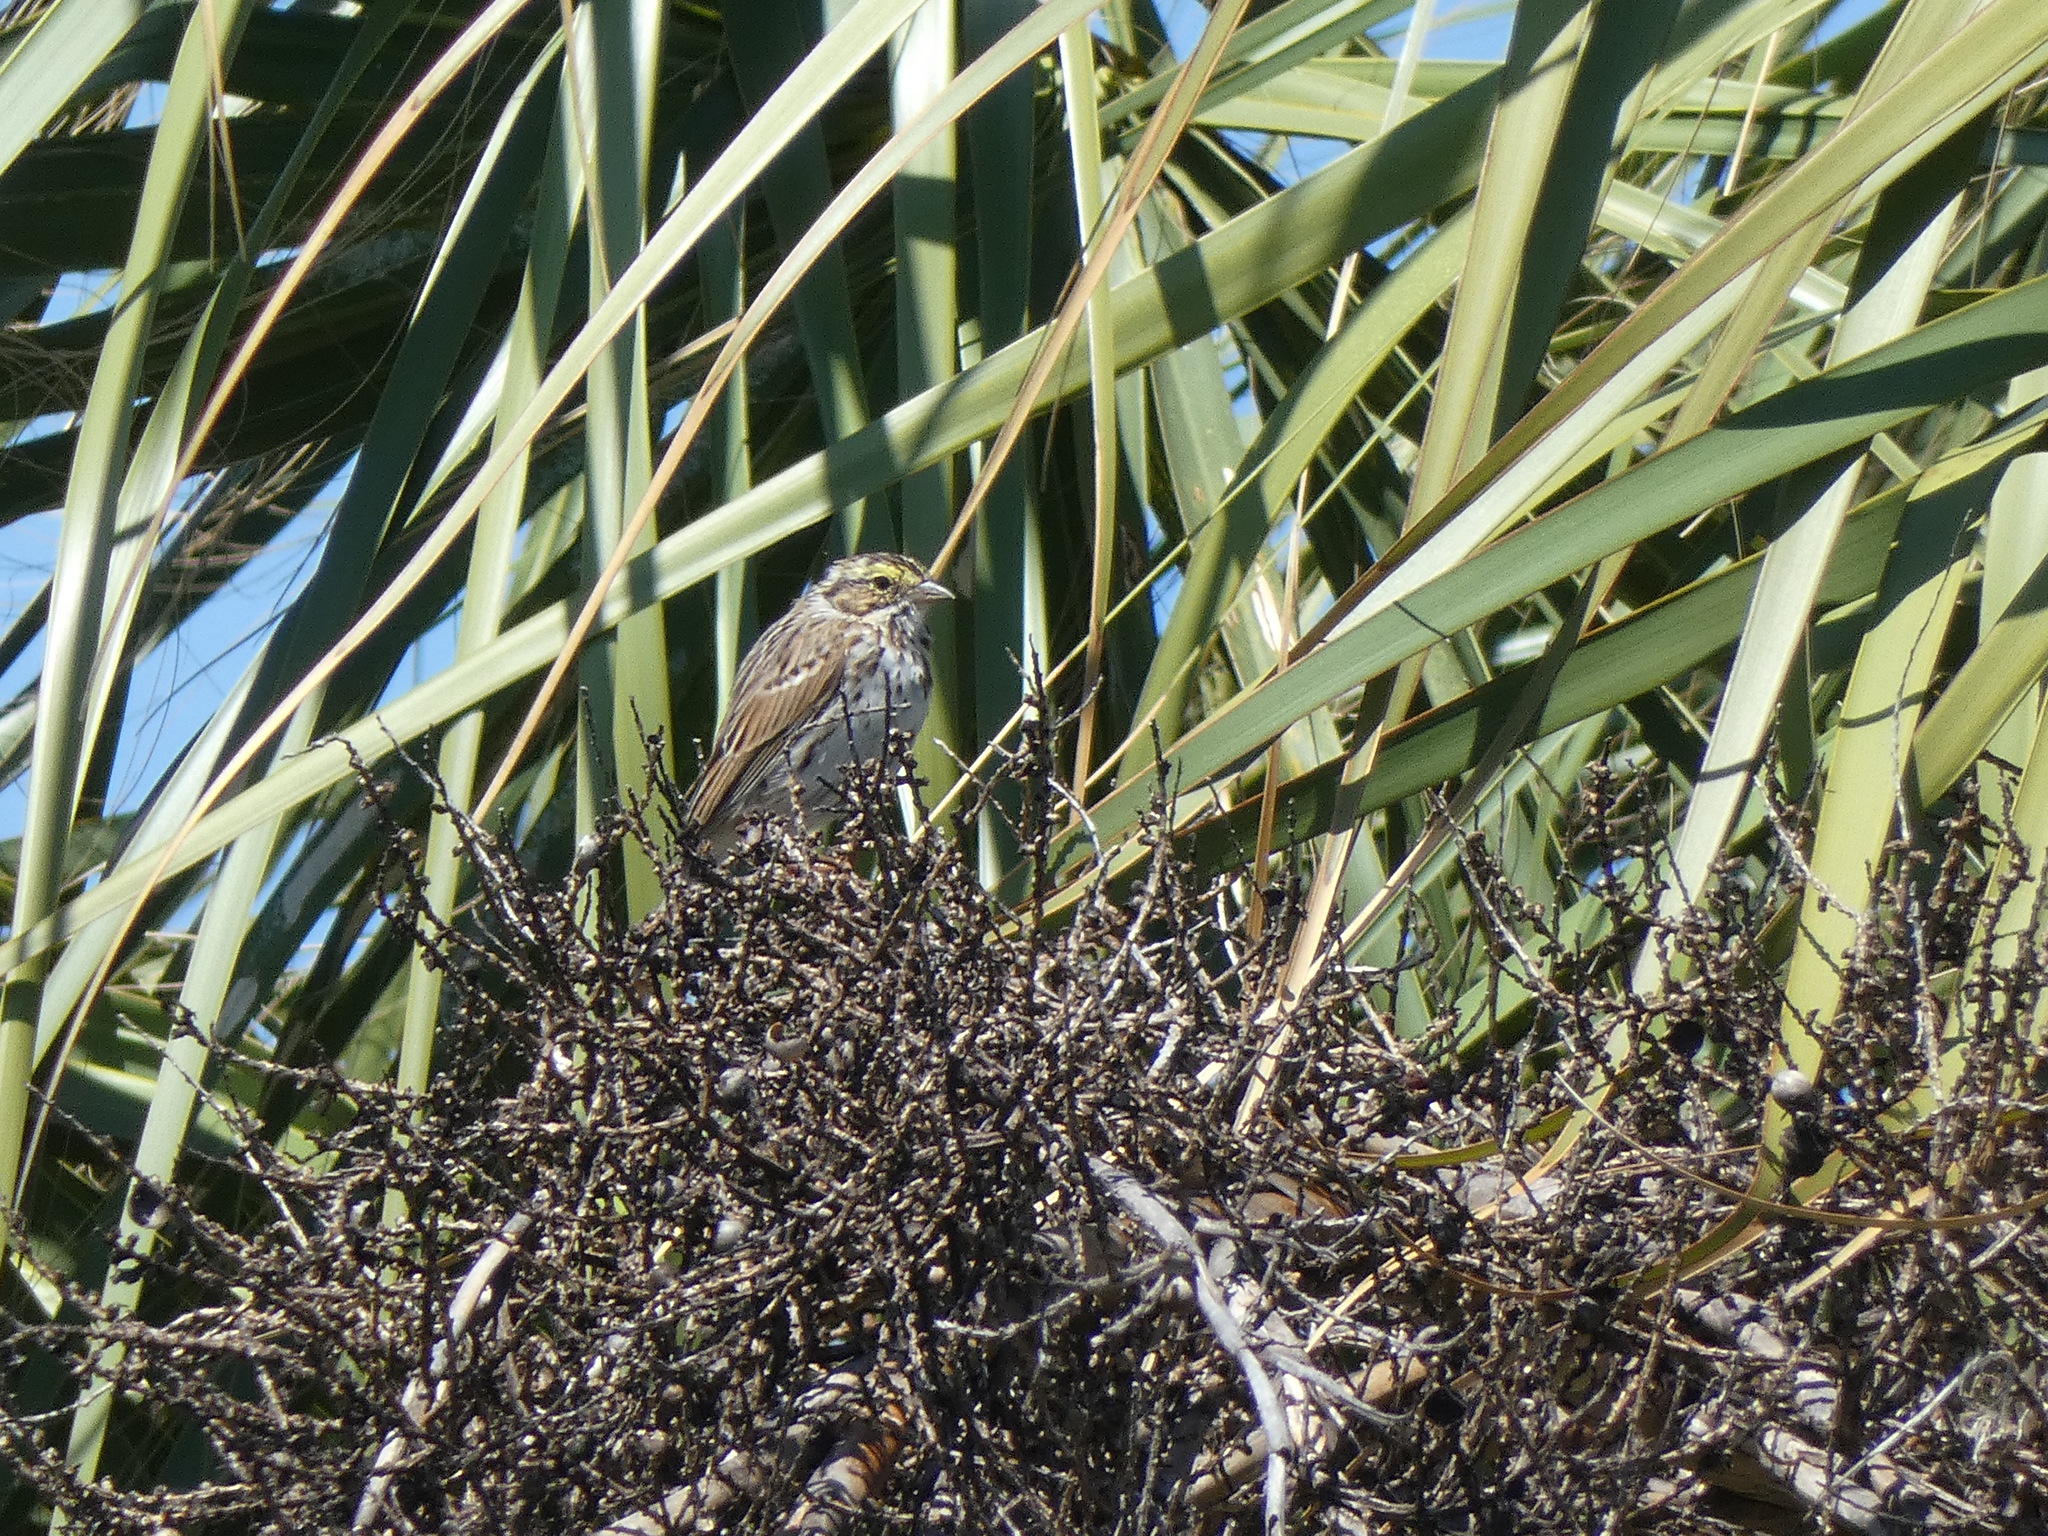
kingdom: Animalia
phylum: Chordata
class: Aves
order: Passeriformes
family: Passerellidae
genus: Passerculus
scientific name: Passerculus sandwichensis
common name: Savannah sparrow
